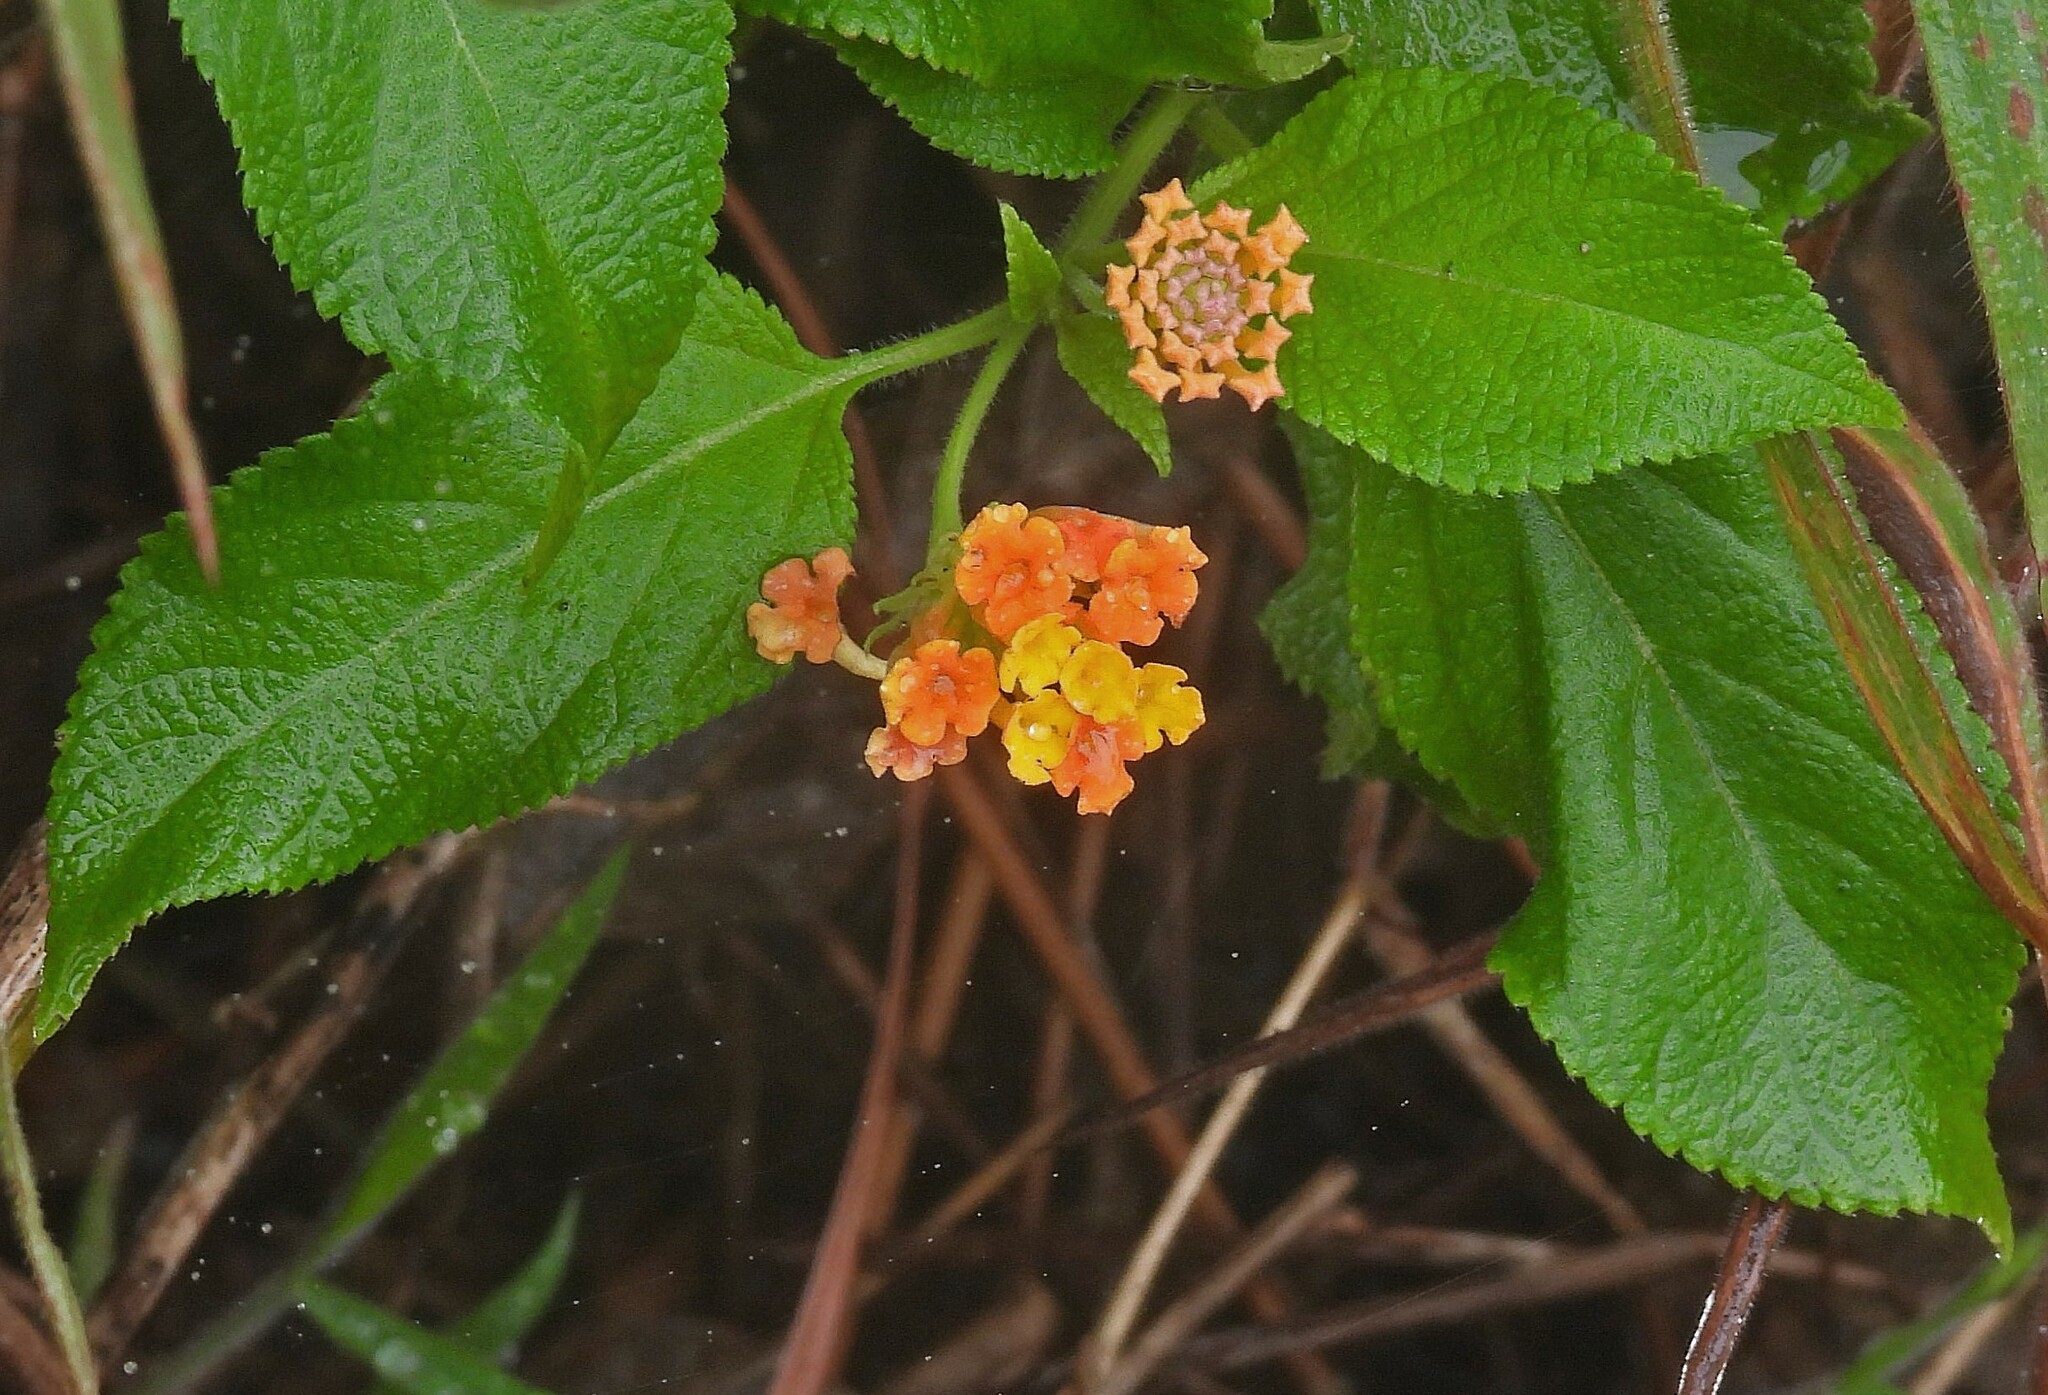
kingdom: Plantae
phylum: Tracheophyta
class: Magnoliopsida
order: Lamiales
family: Verbenaceae
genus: Lantana
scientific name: Lantana camara
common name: Lantana
